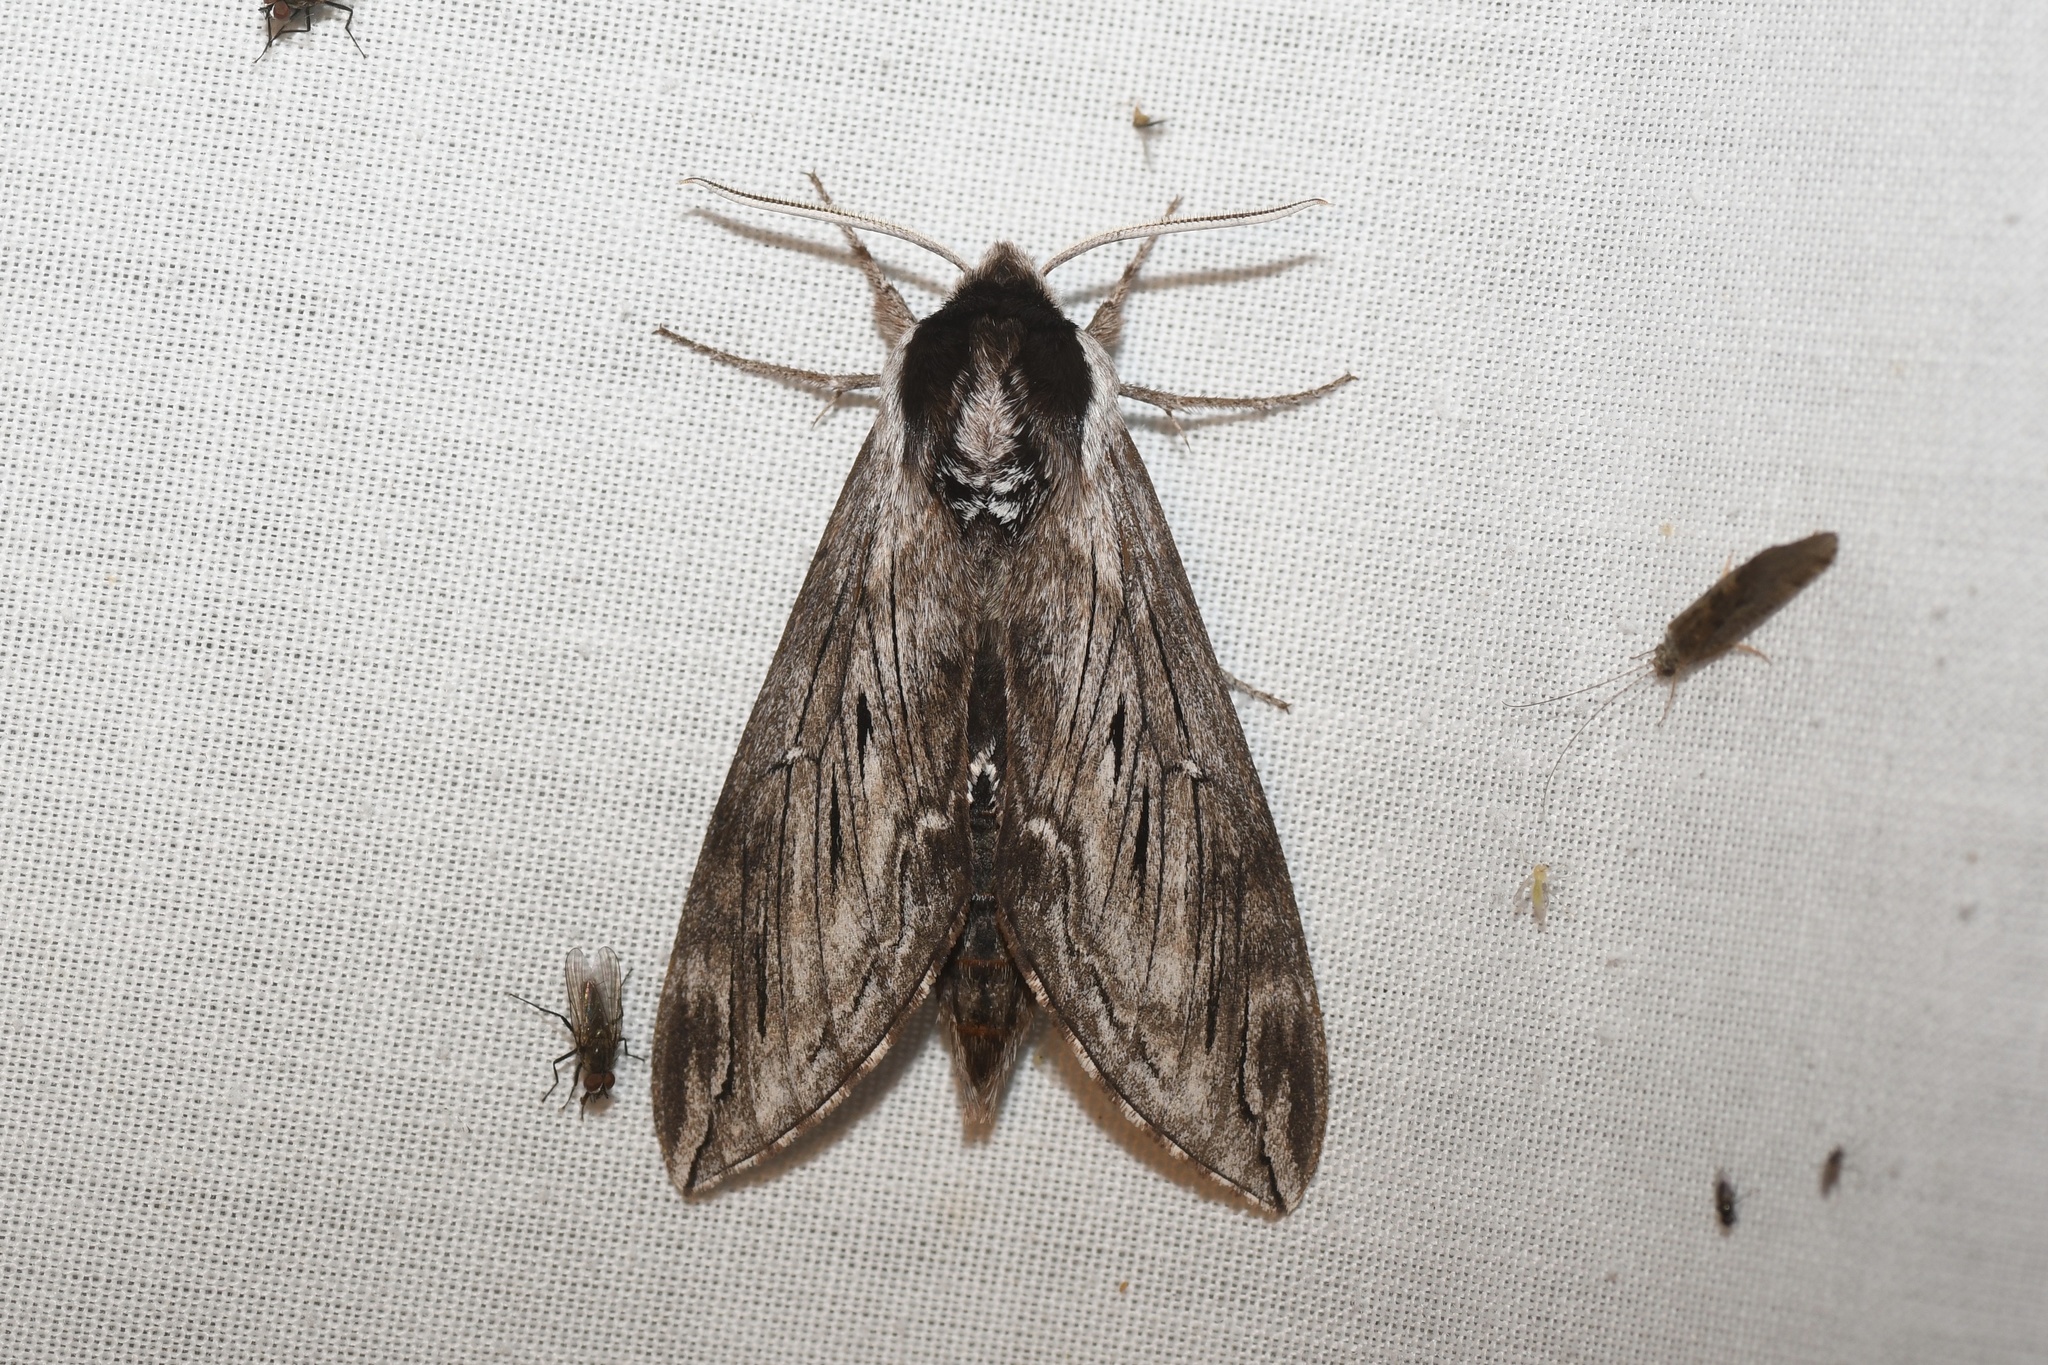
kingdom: Animalia
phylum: Arthropoda
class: Insecta
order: Lepidoptera
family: Sphingidae
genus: Sphinx
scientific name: Sphinx poecila
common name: Northern apple sphinx
